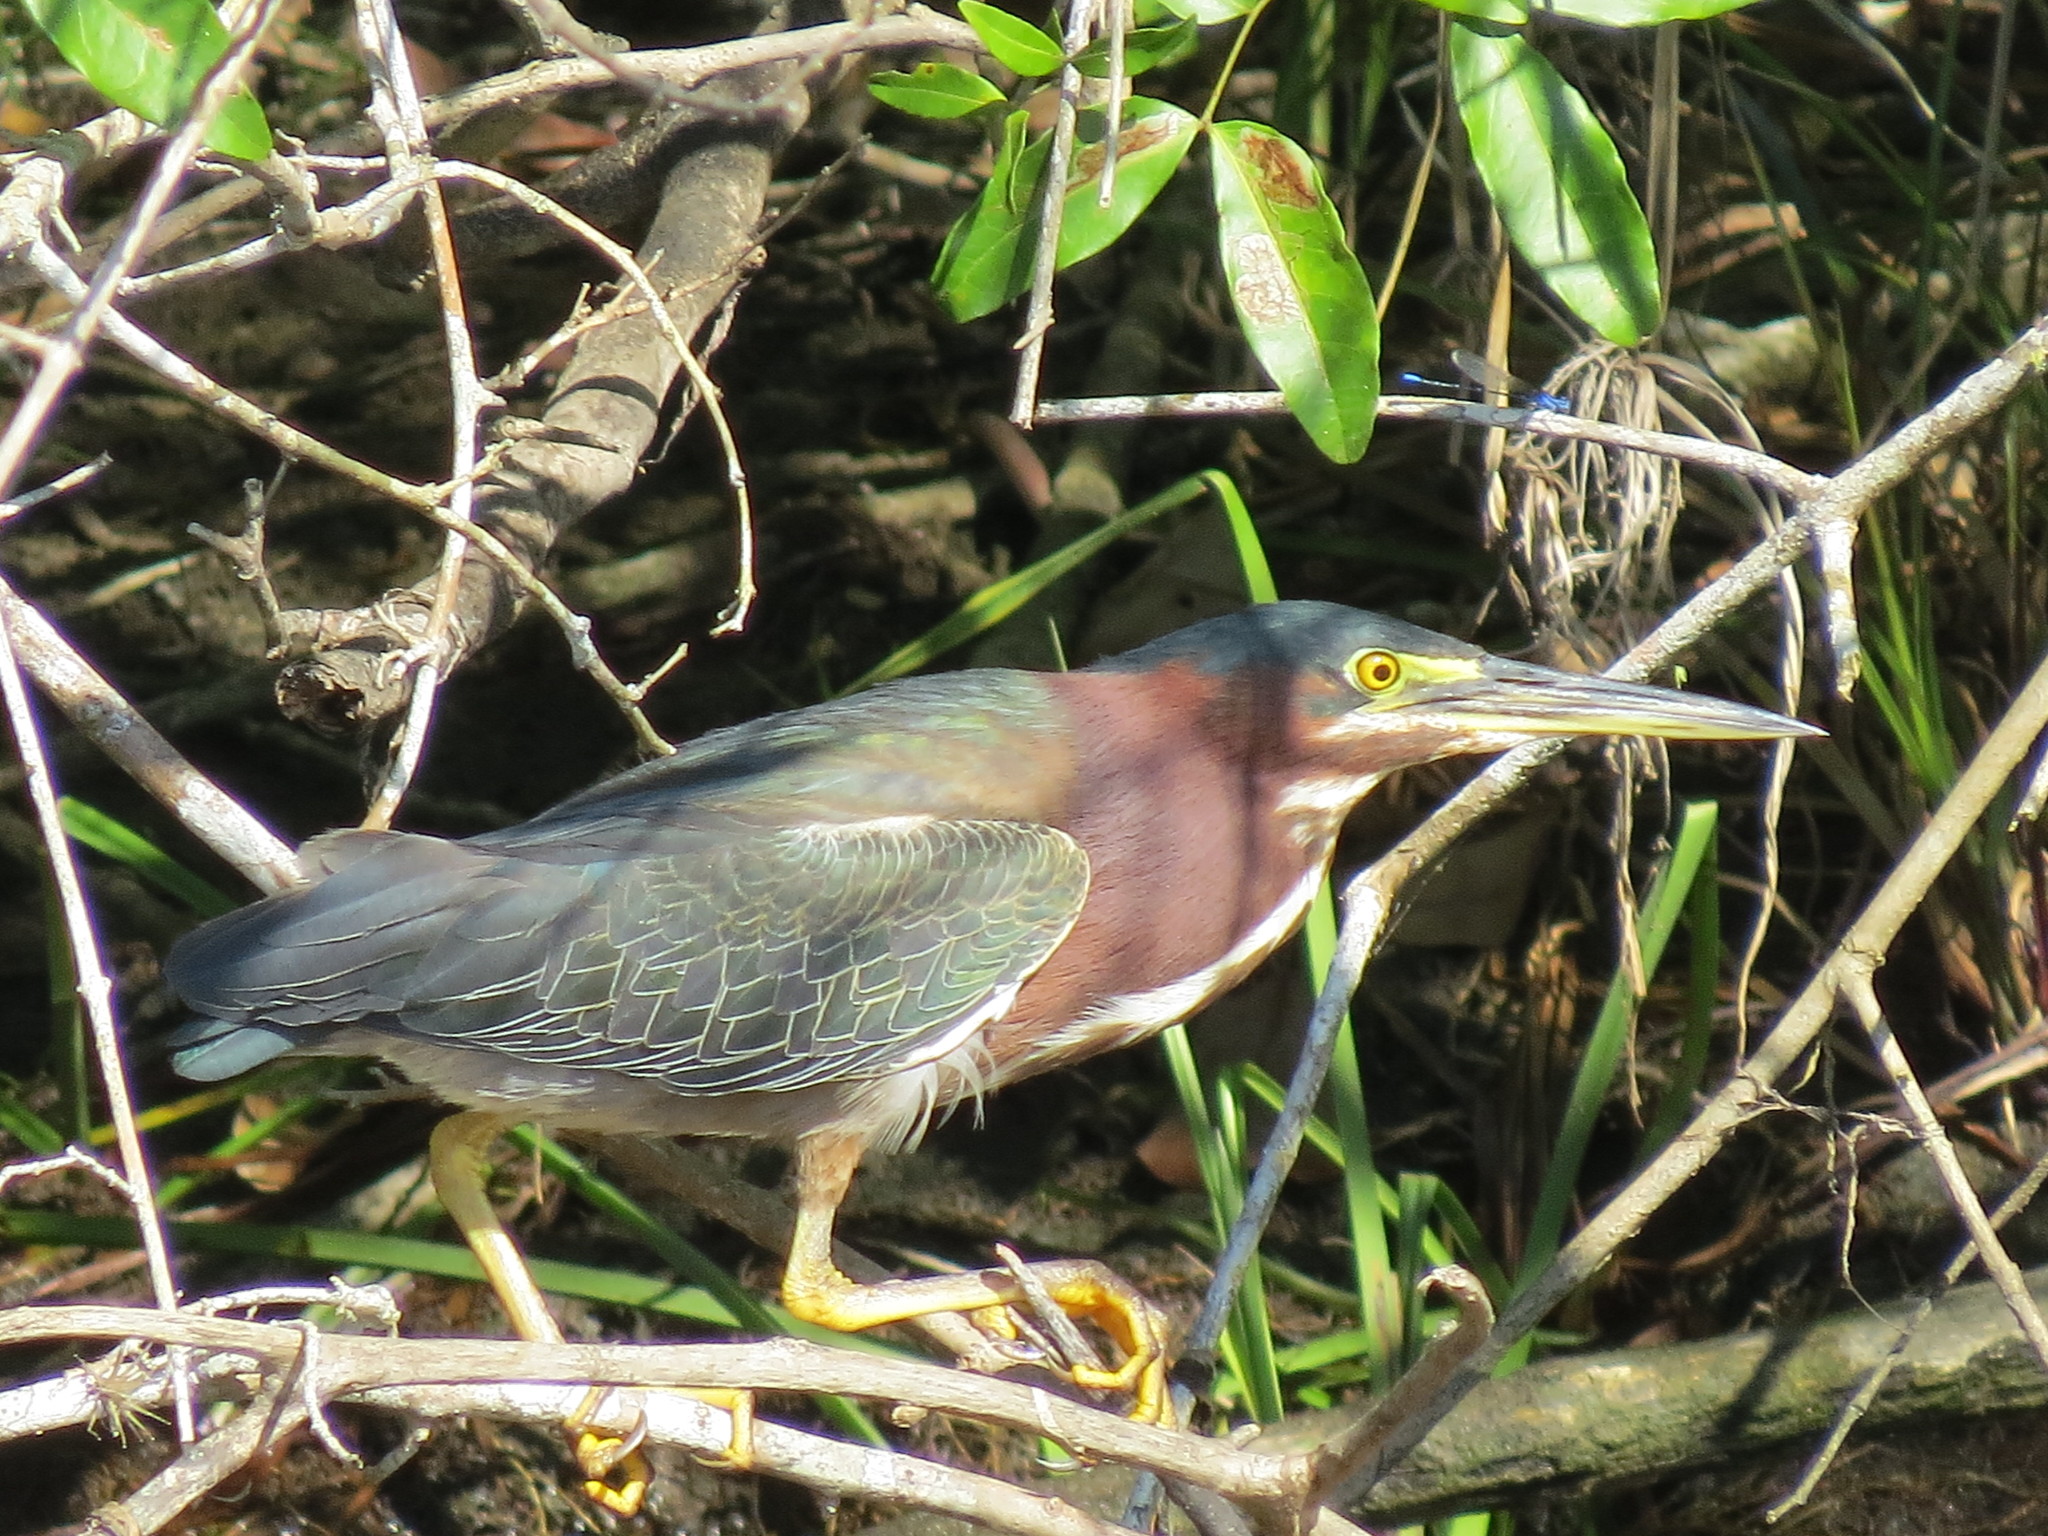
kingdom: Animalia
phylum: Chordata
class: Aves
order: Pelecaniformes
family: Ardeidae
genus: Butorides
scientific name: Butorides virescens
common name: Green heron
